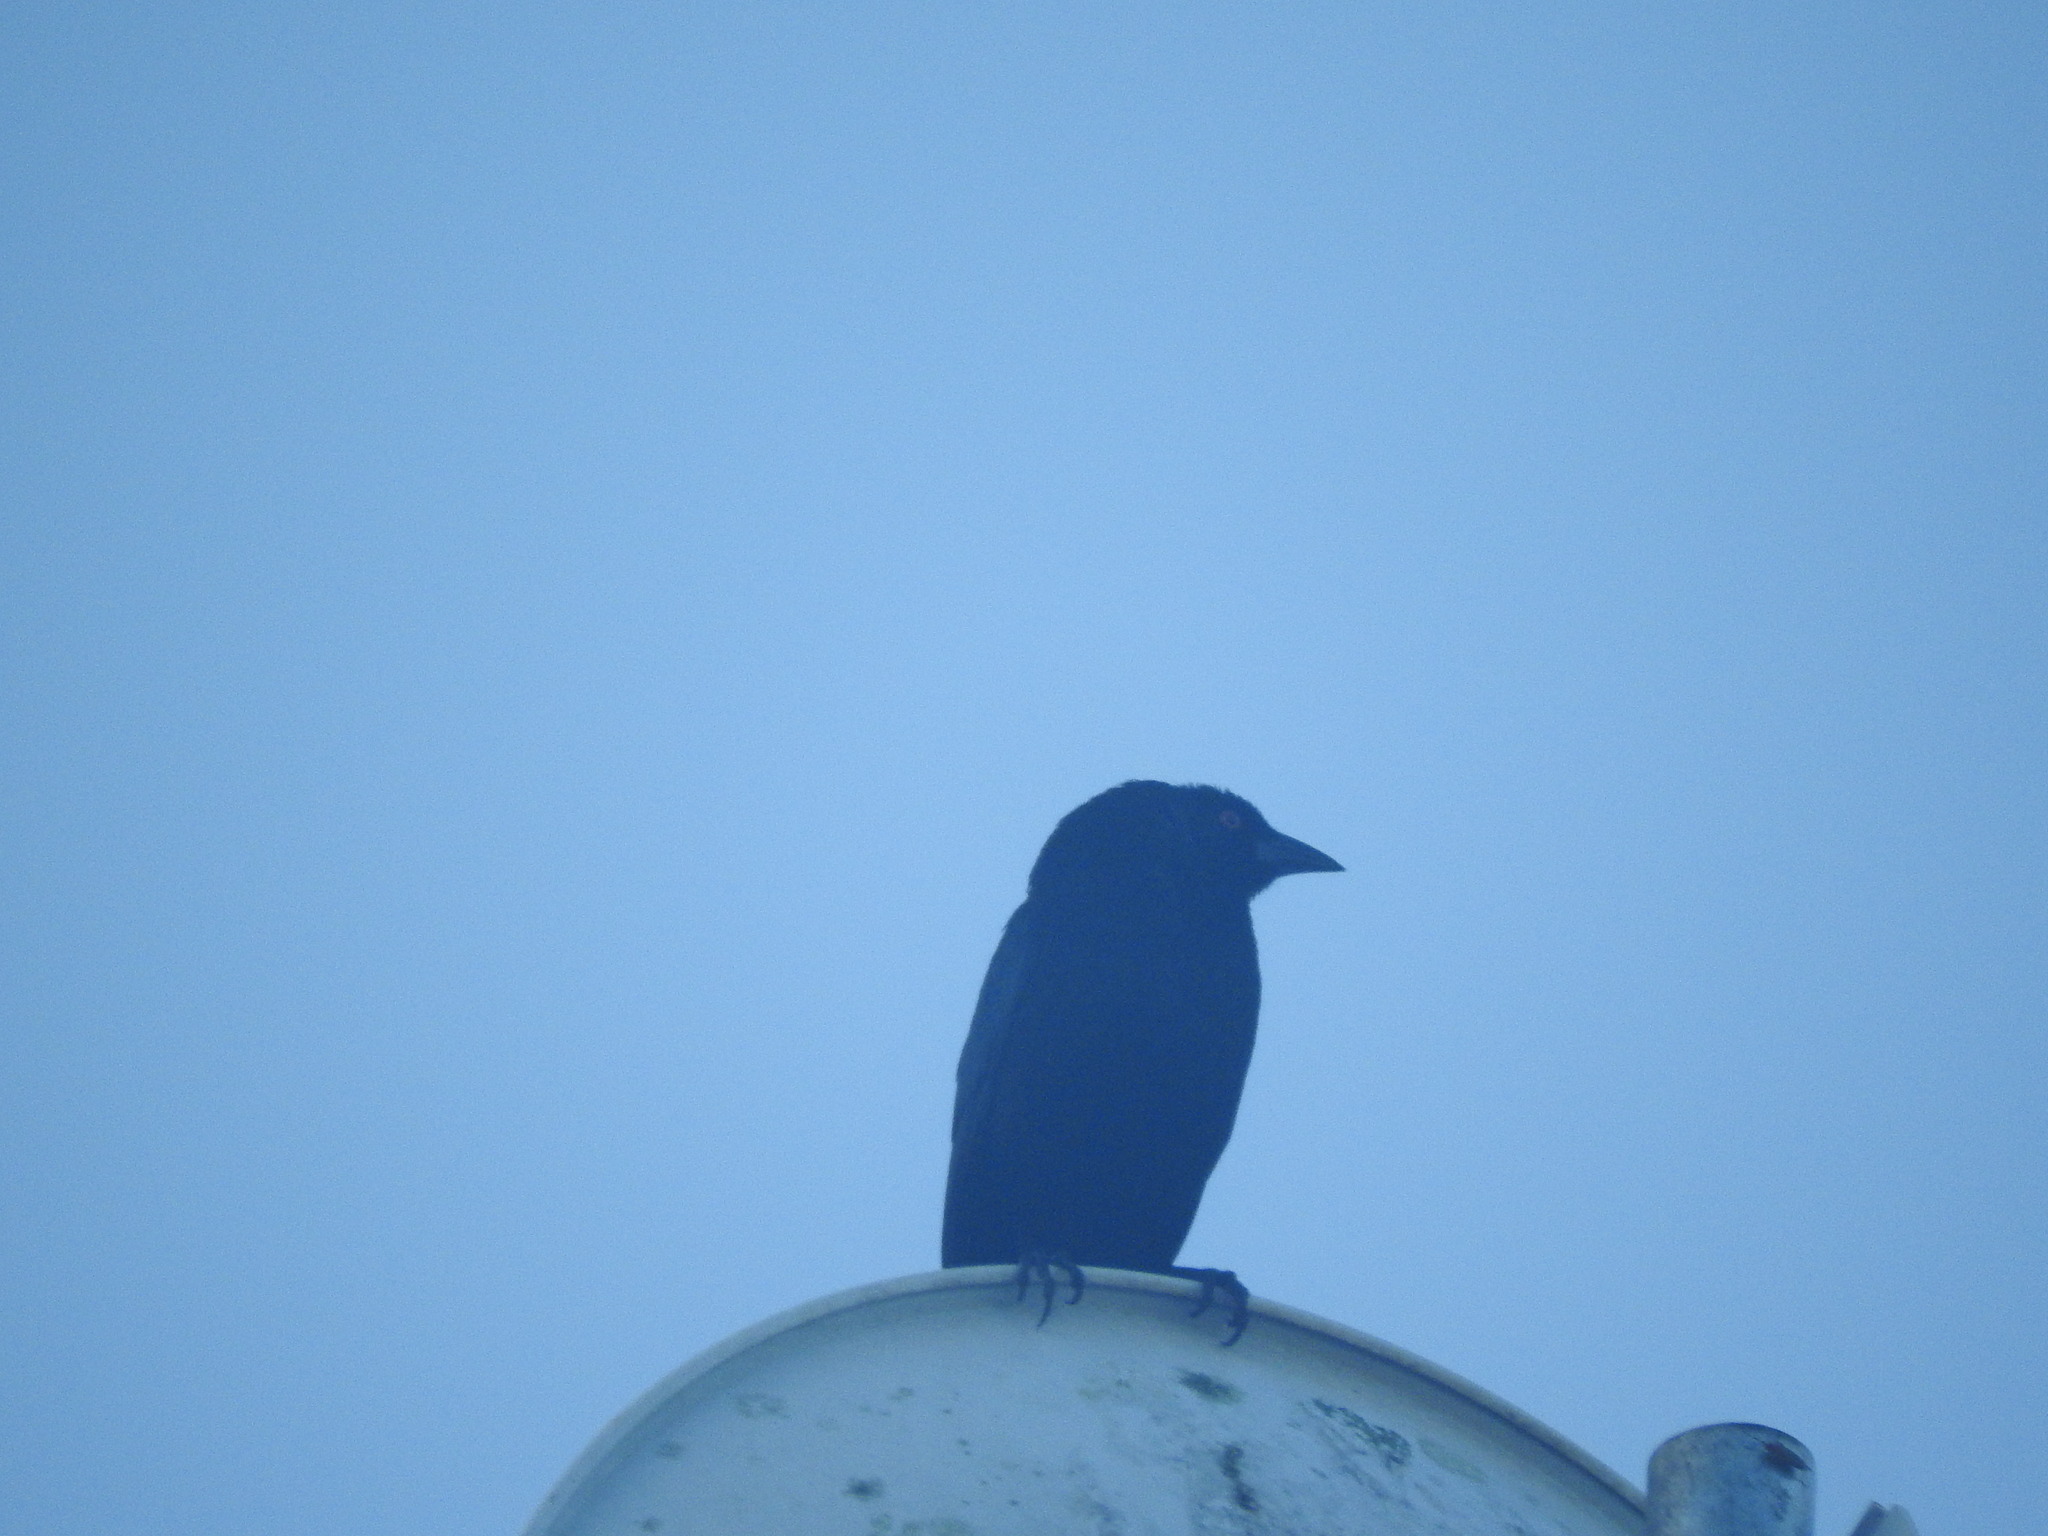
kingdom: Animalia
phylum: Chordata
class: Aves
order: Passeriformes
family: Icteridae
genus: Molothrus
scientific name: Molothrus aeneus
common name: Bronzed cowbird
